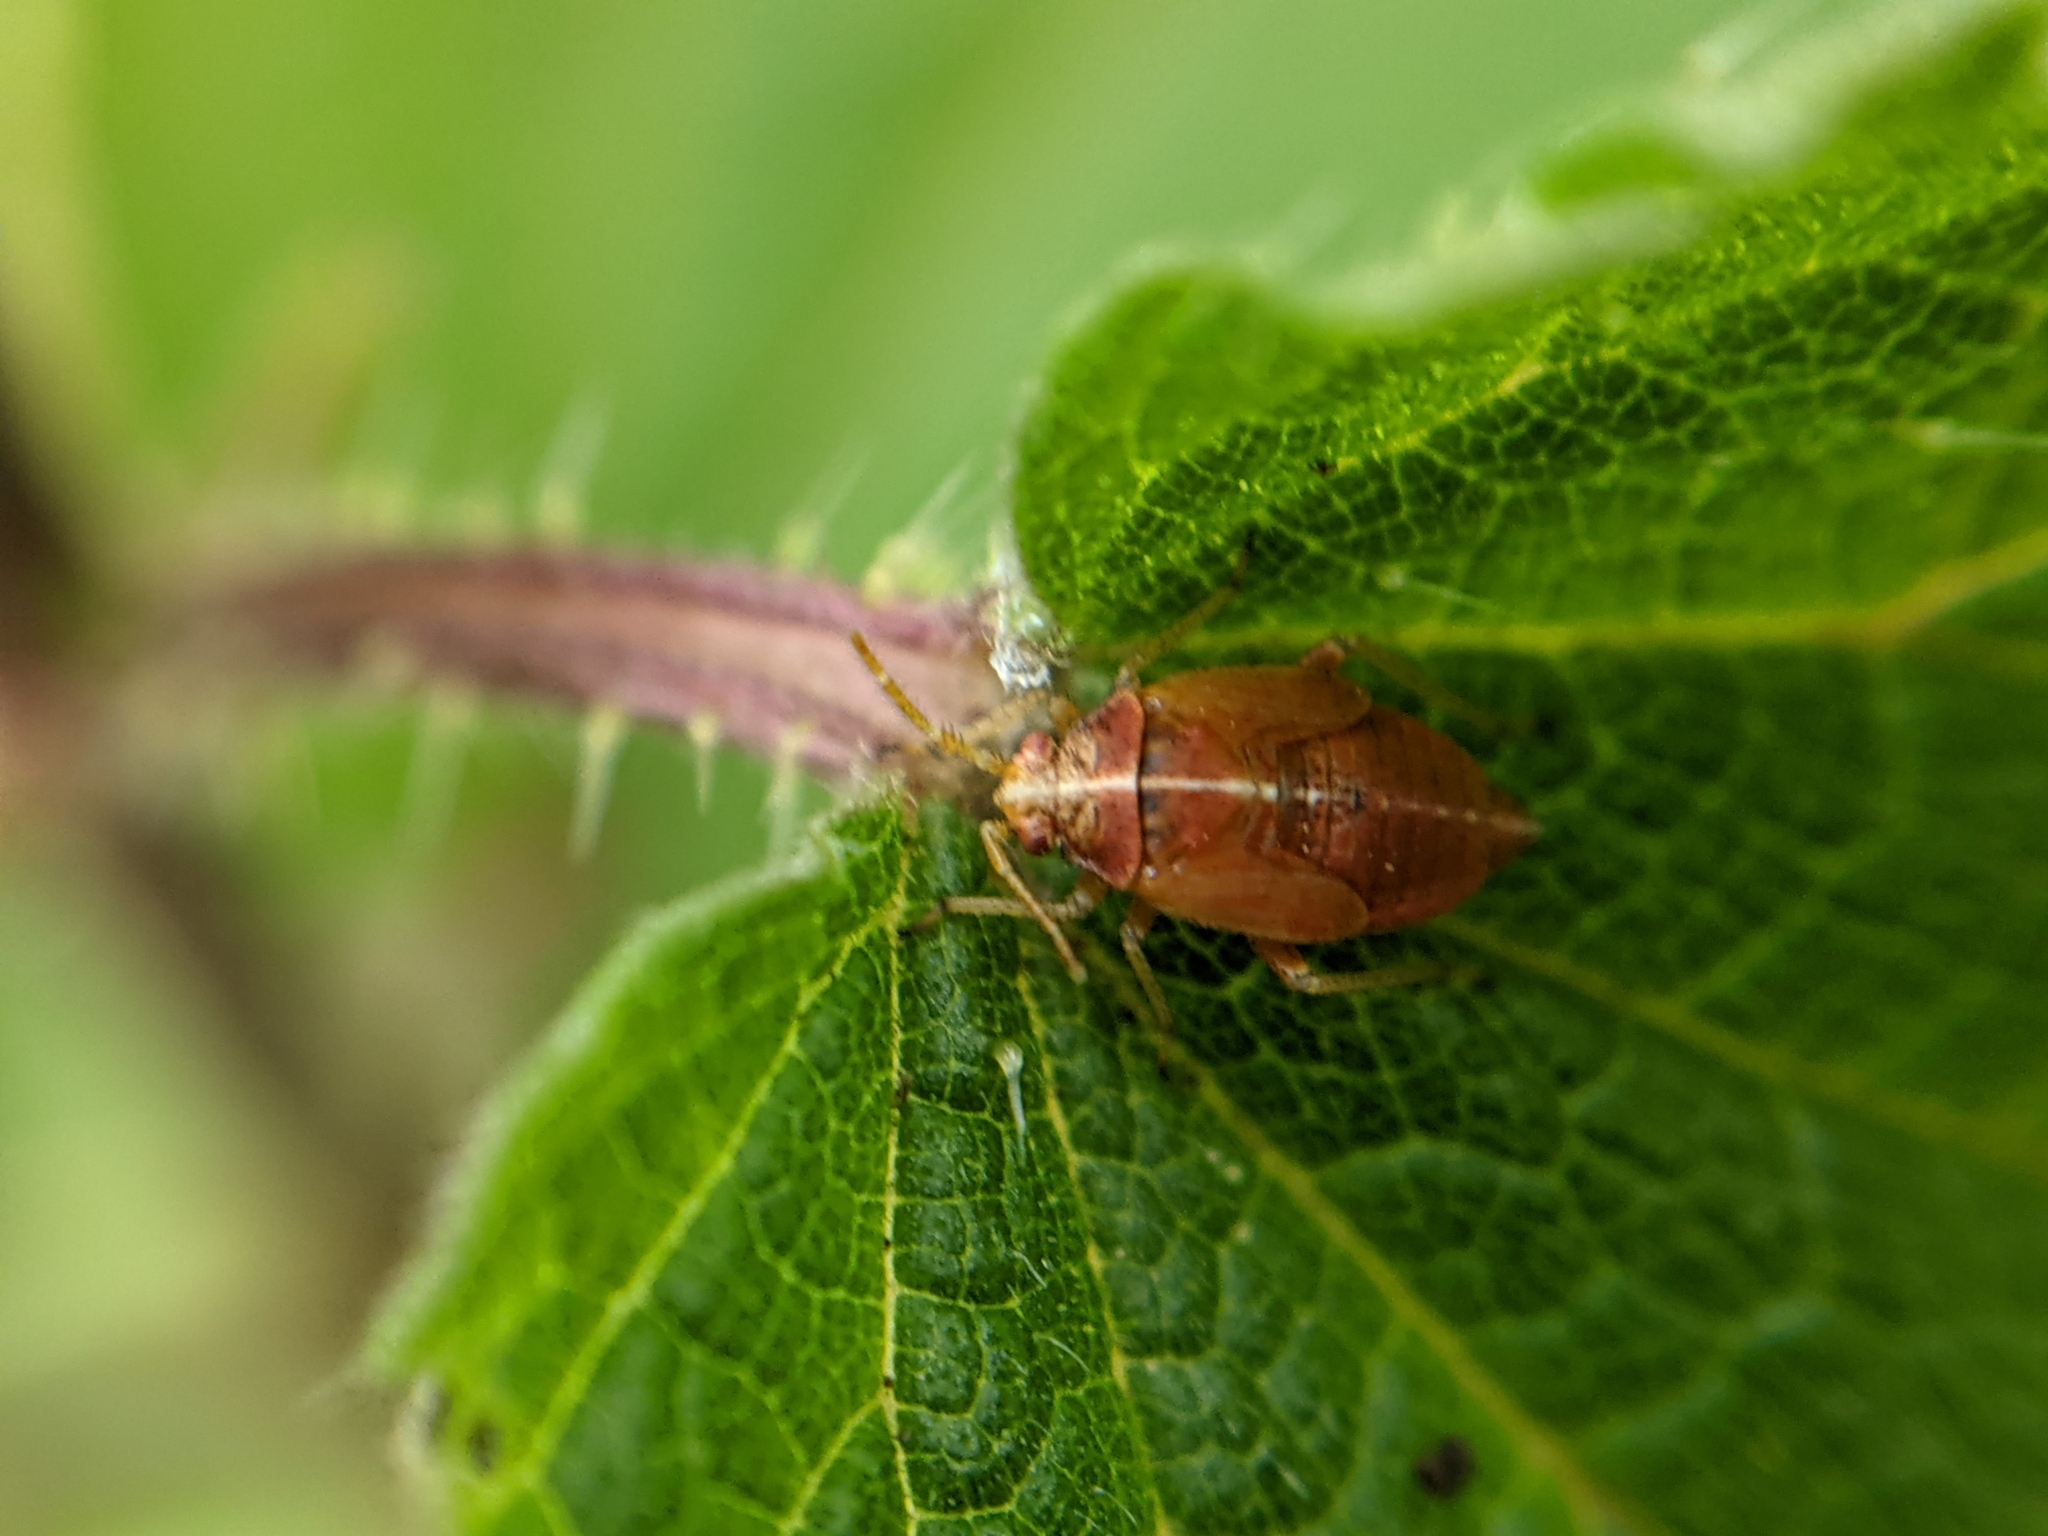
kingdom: Animalia
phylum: Arthropoda
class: Insecta
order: Hemiptera
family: Miridae
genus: Harpocera
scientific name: Harpocera thoracica
